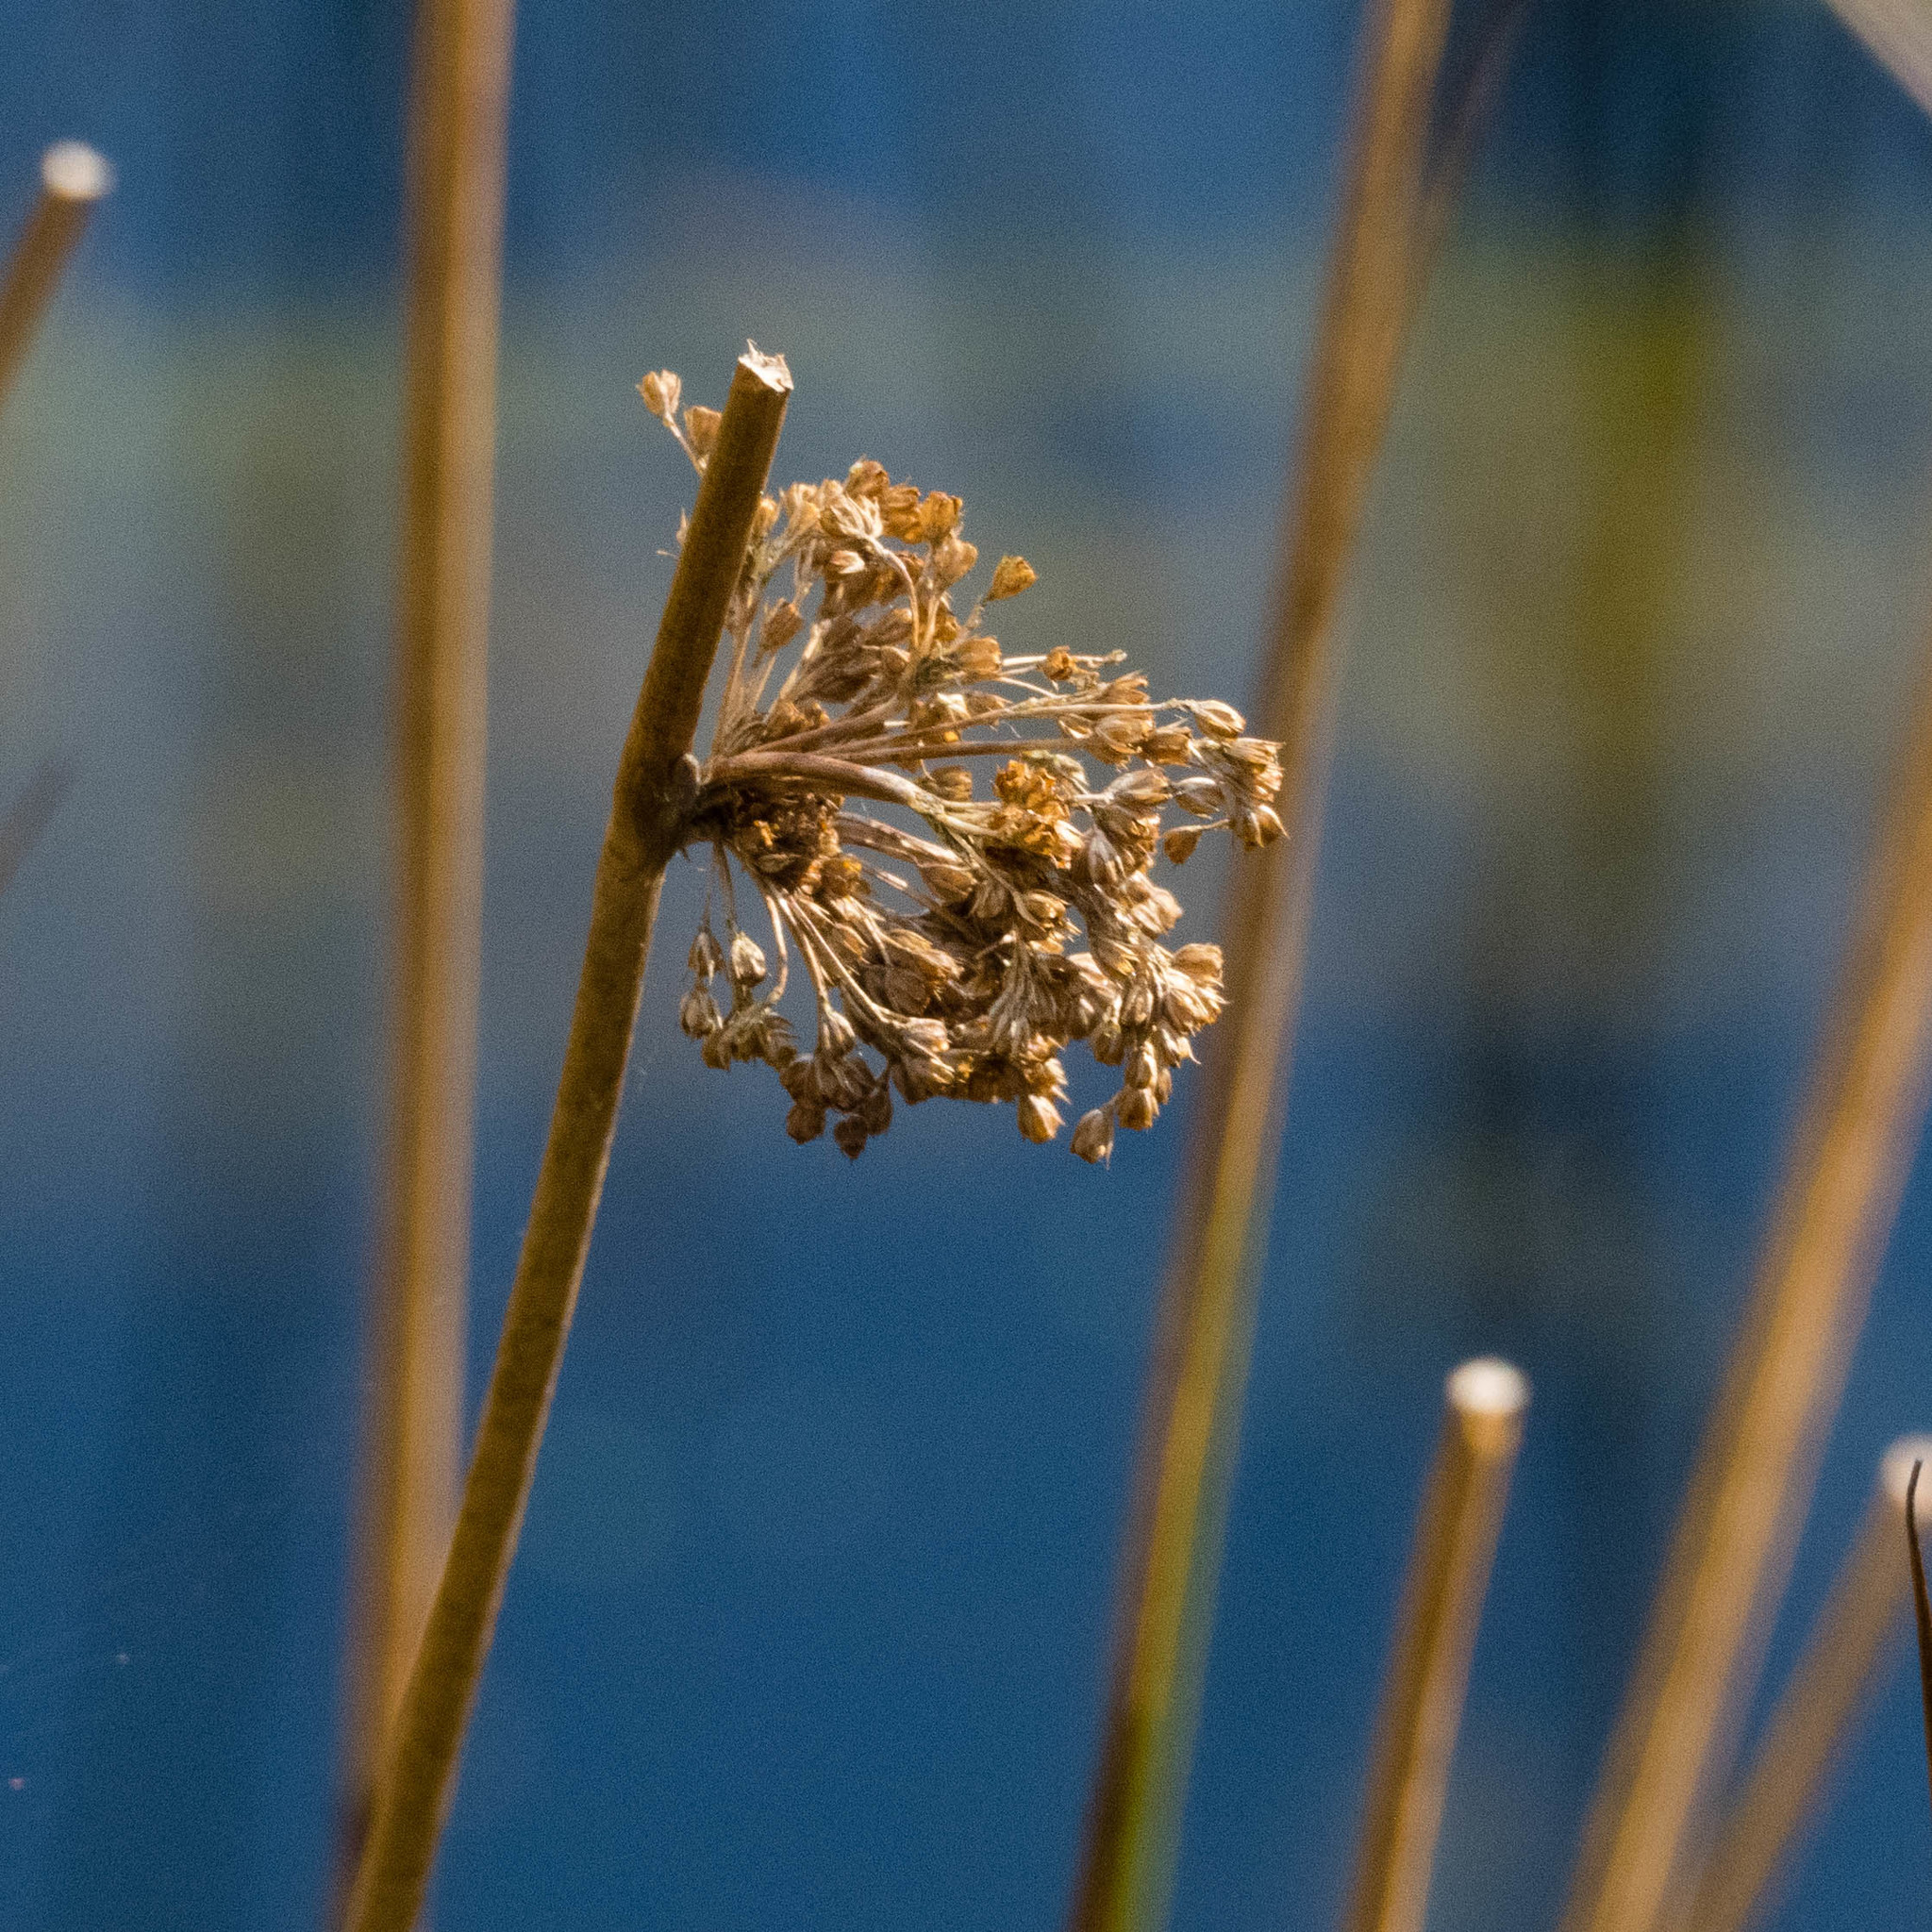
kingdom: Plantae
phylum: Tracheophyta
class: Liliopsida
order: Poales
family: Juncaceae
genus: Juncus
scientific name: Juncus effusus
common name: Soft rush
